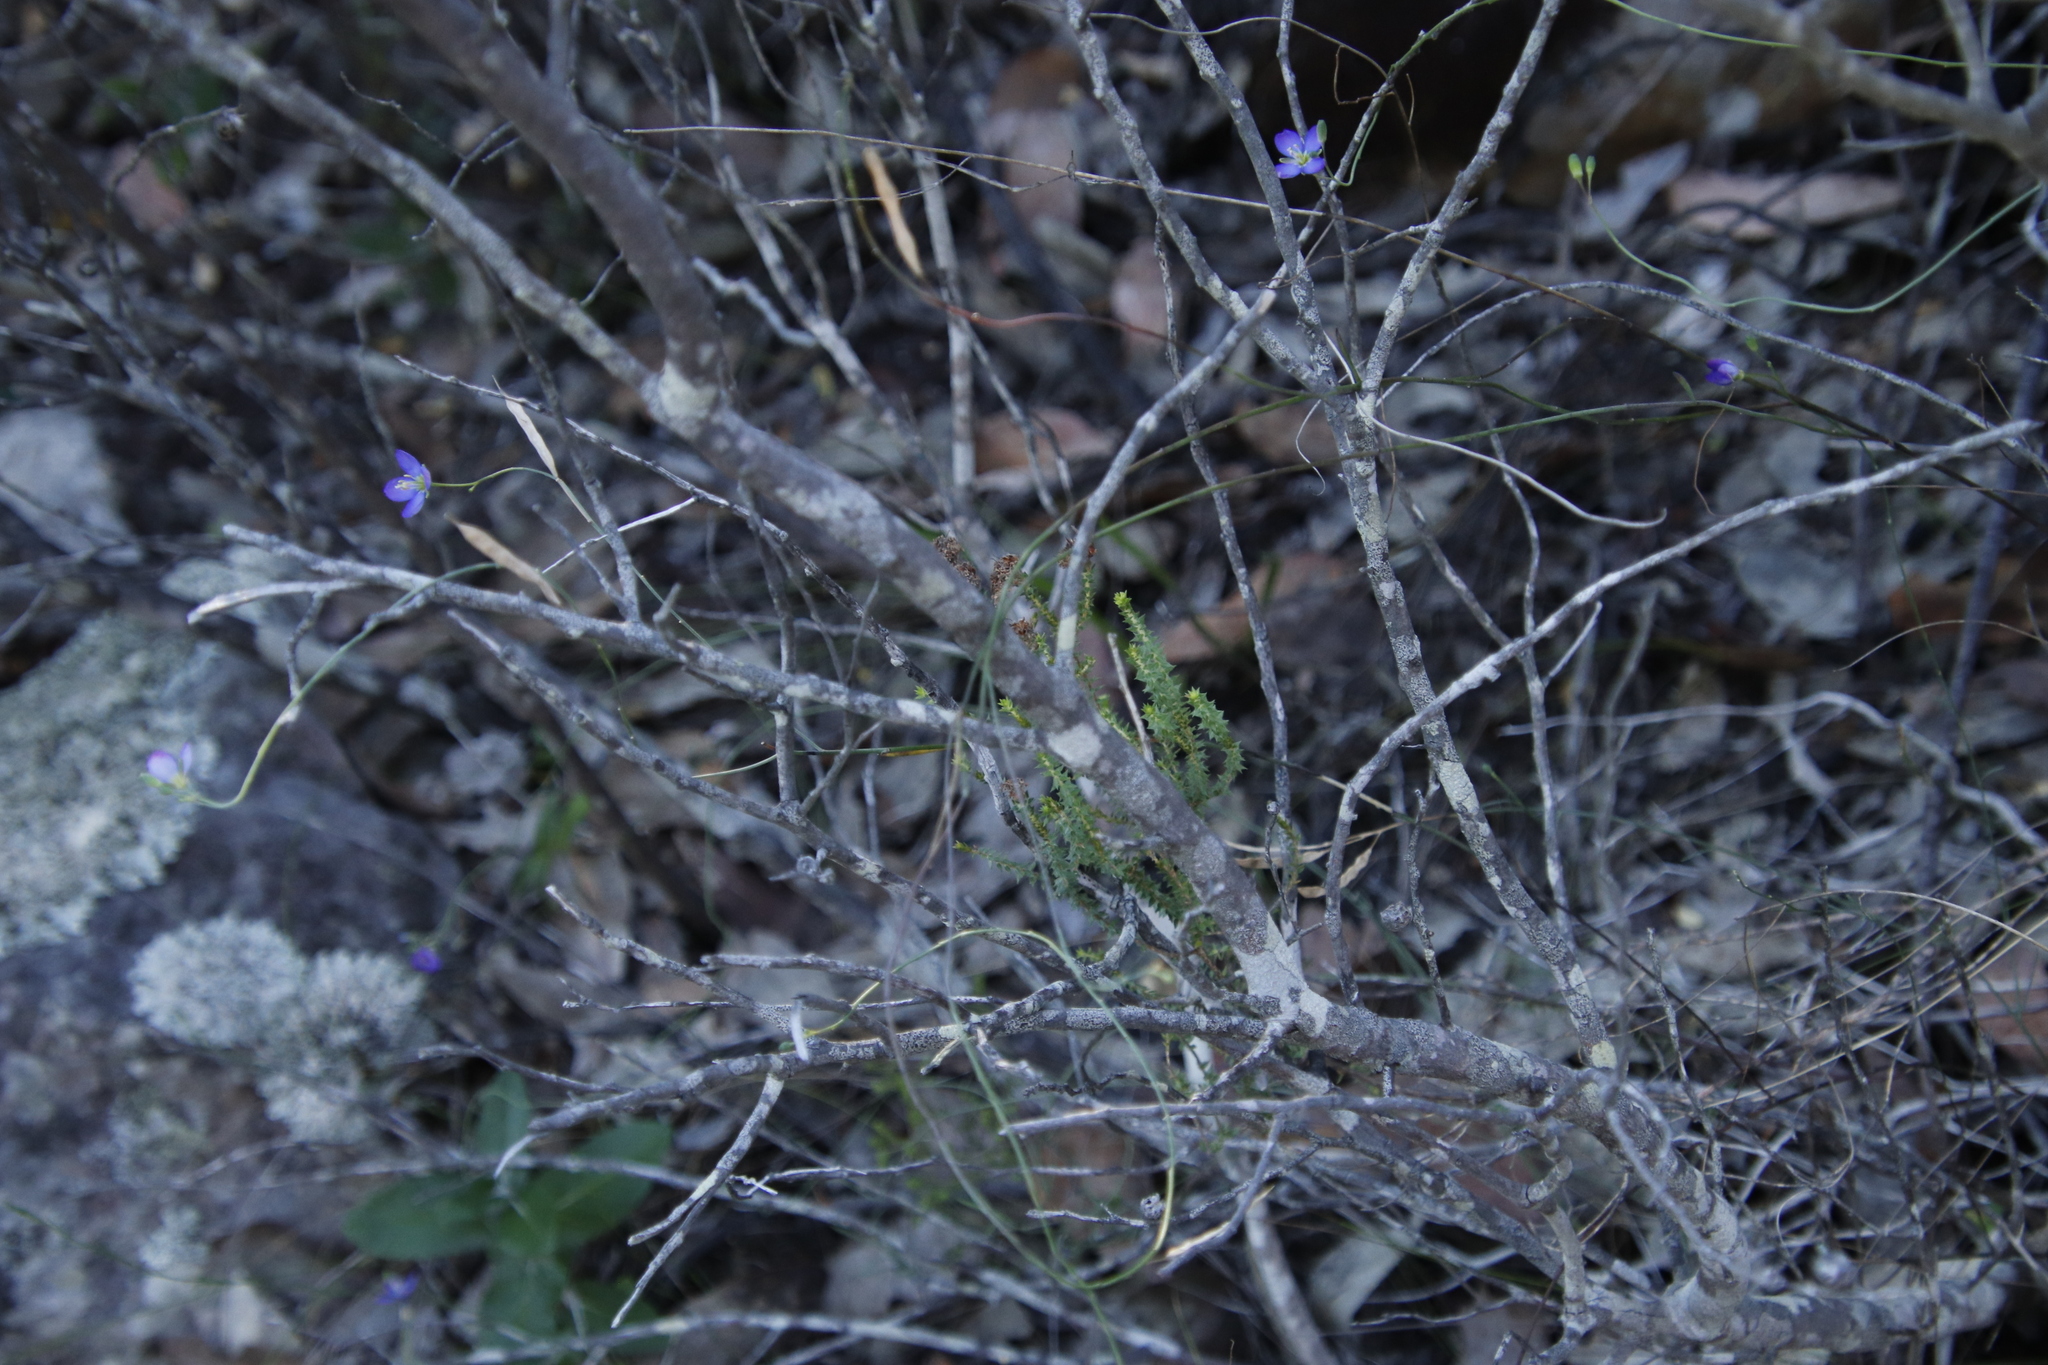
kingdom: Plantae
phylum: Tracheophyta
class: Magnoliopsida
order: Brassicales
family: Brassicaceae
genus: Heliophila
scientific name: Heliophila linearis
